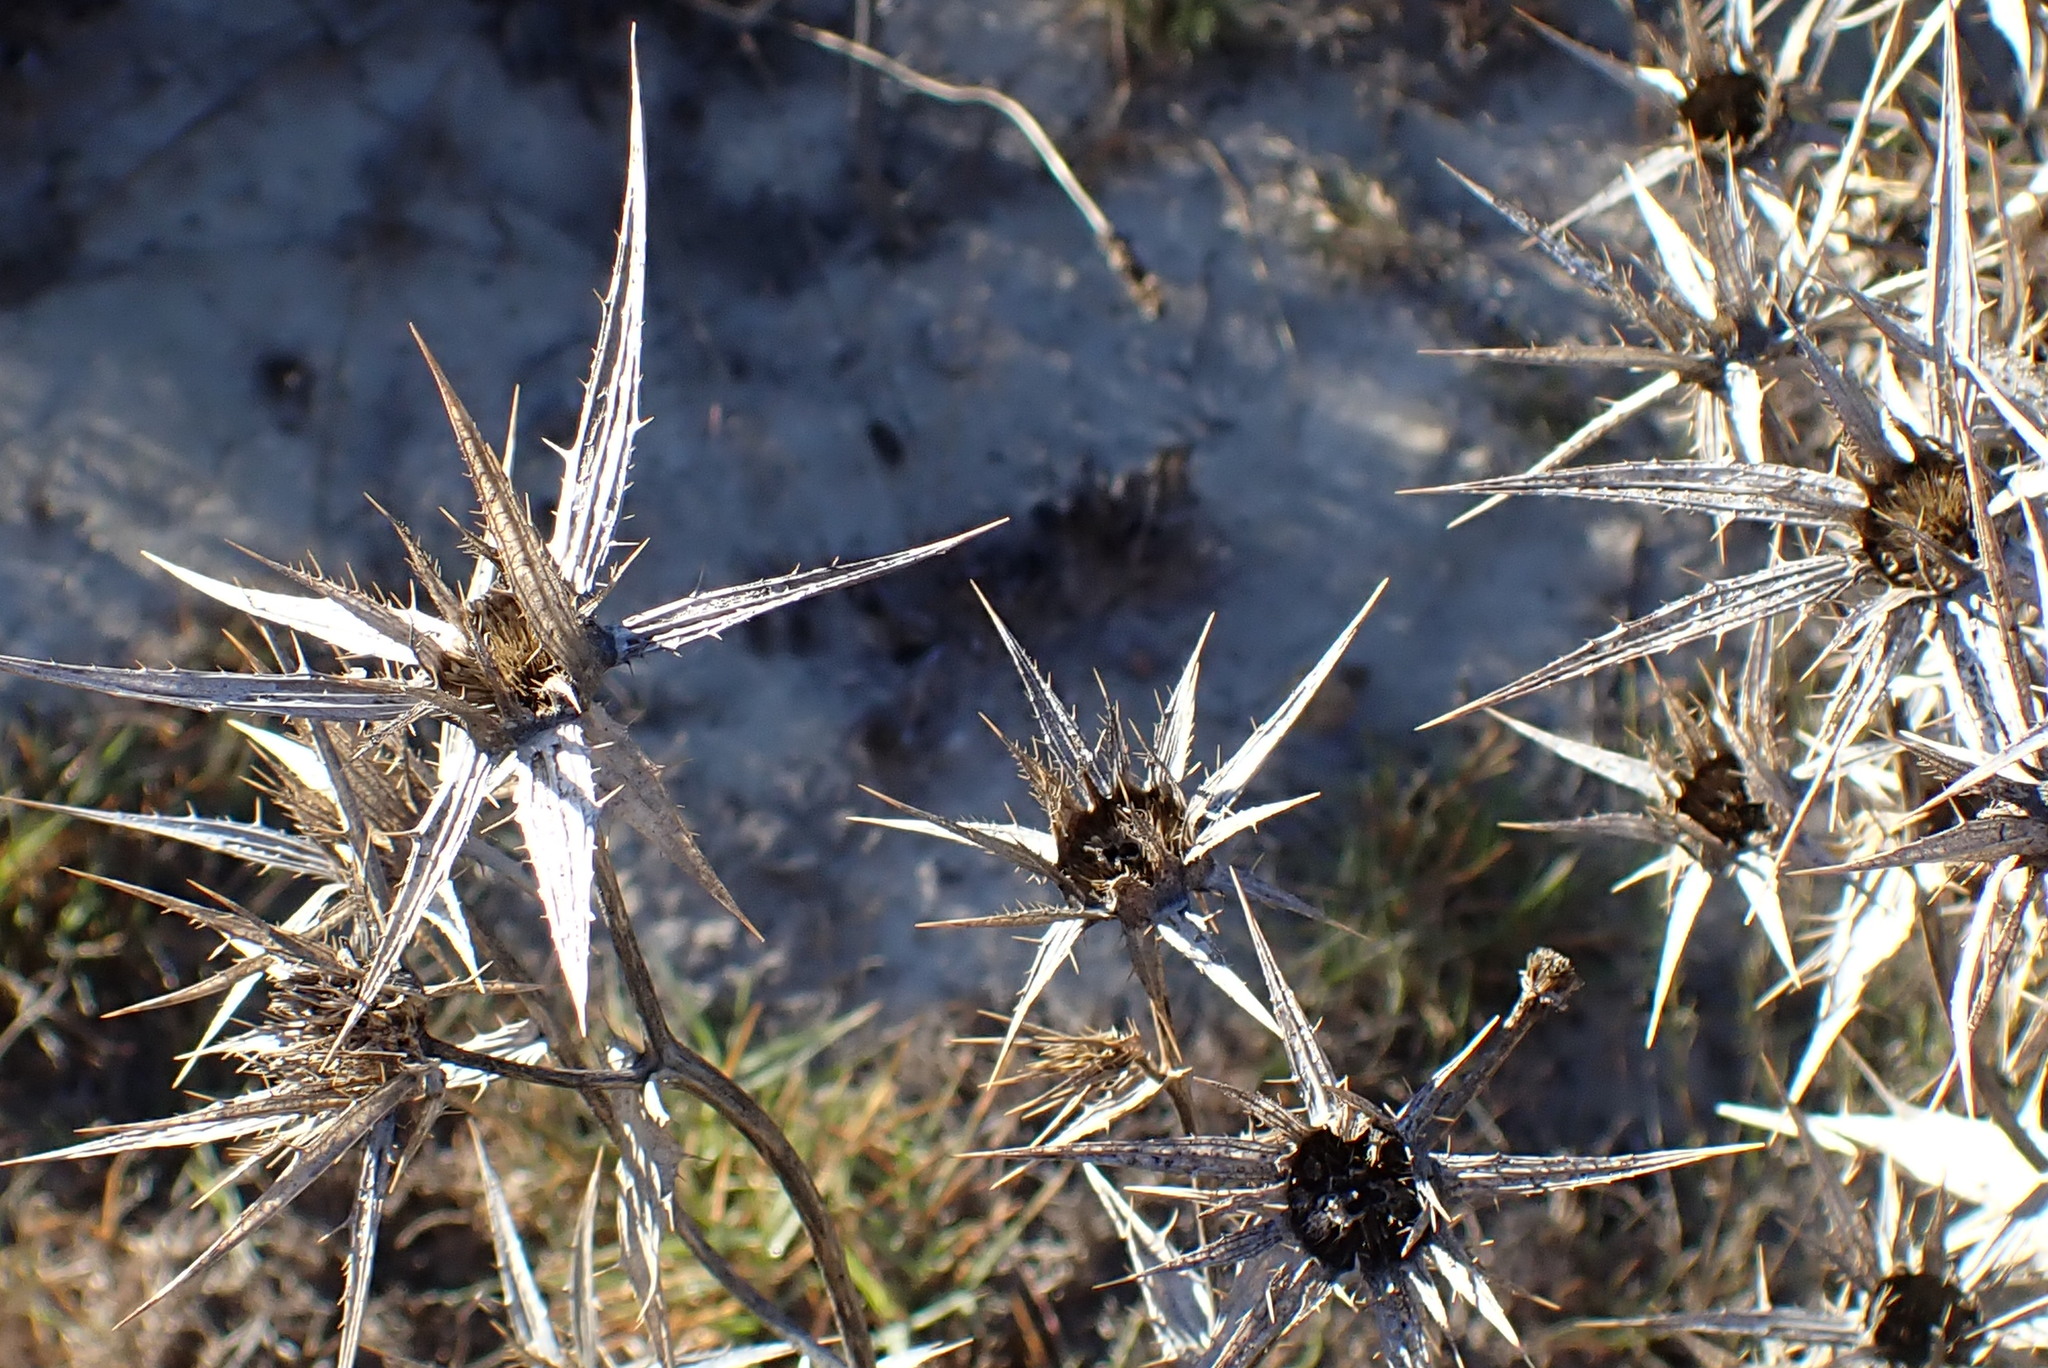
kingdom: Plantae
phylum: Tracheophyta
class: Magnoliopsida
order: Asterales
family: Asteraceae
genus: Berkheya
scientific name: Berkheya rigida
